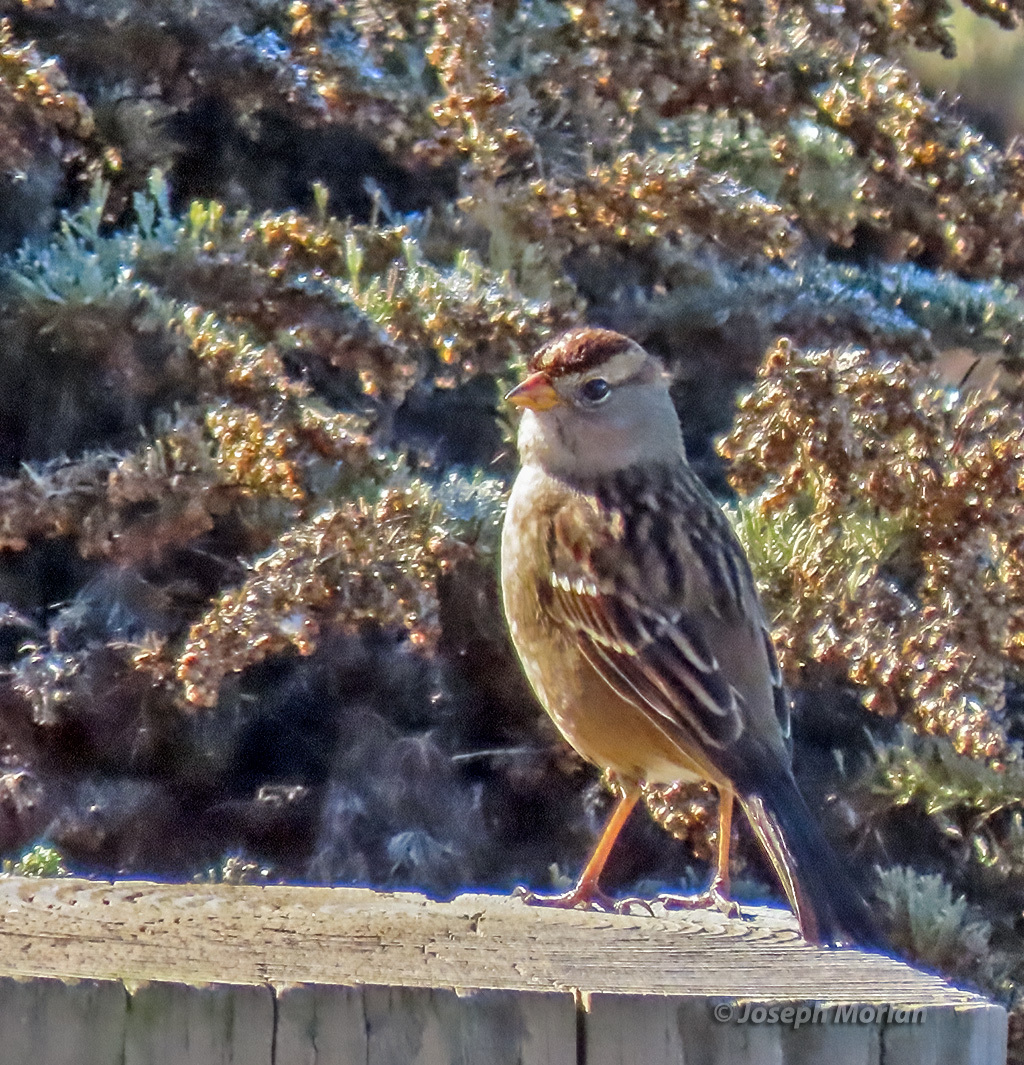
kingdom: Animalia
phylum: Chordata
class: Aves
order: Passeriformes
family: Passerellidae
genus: Zonotrichia
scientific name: Zonotrichia leucophrys
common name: White-crowned sparrow
